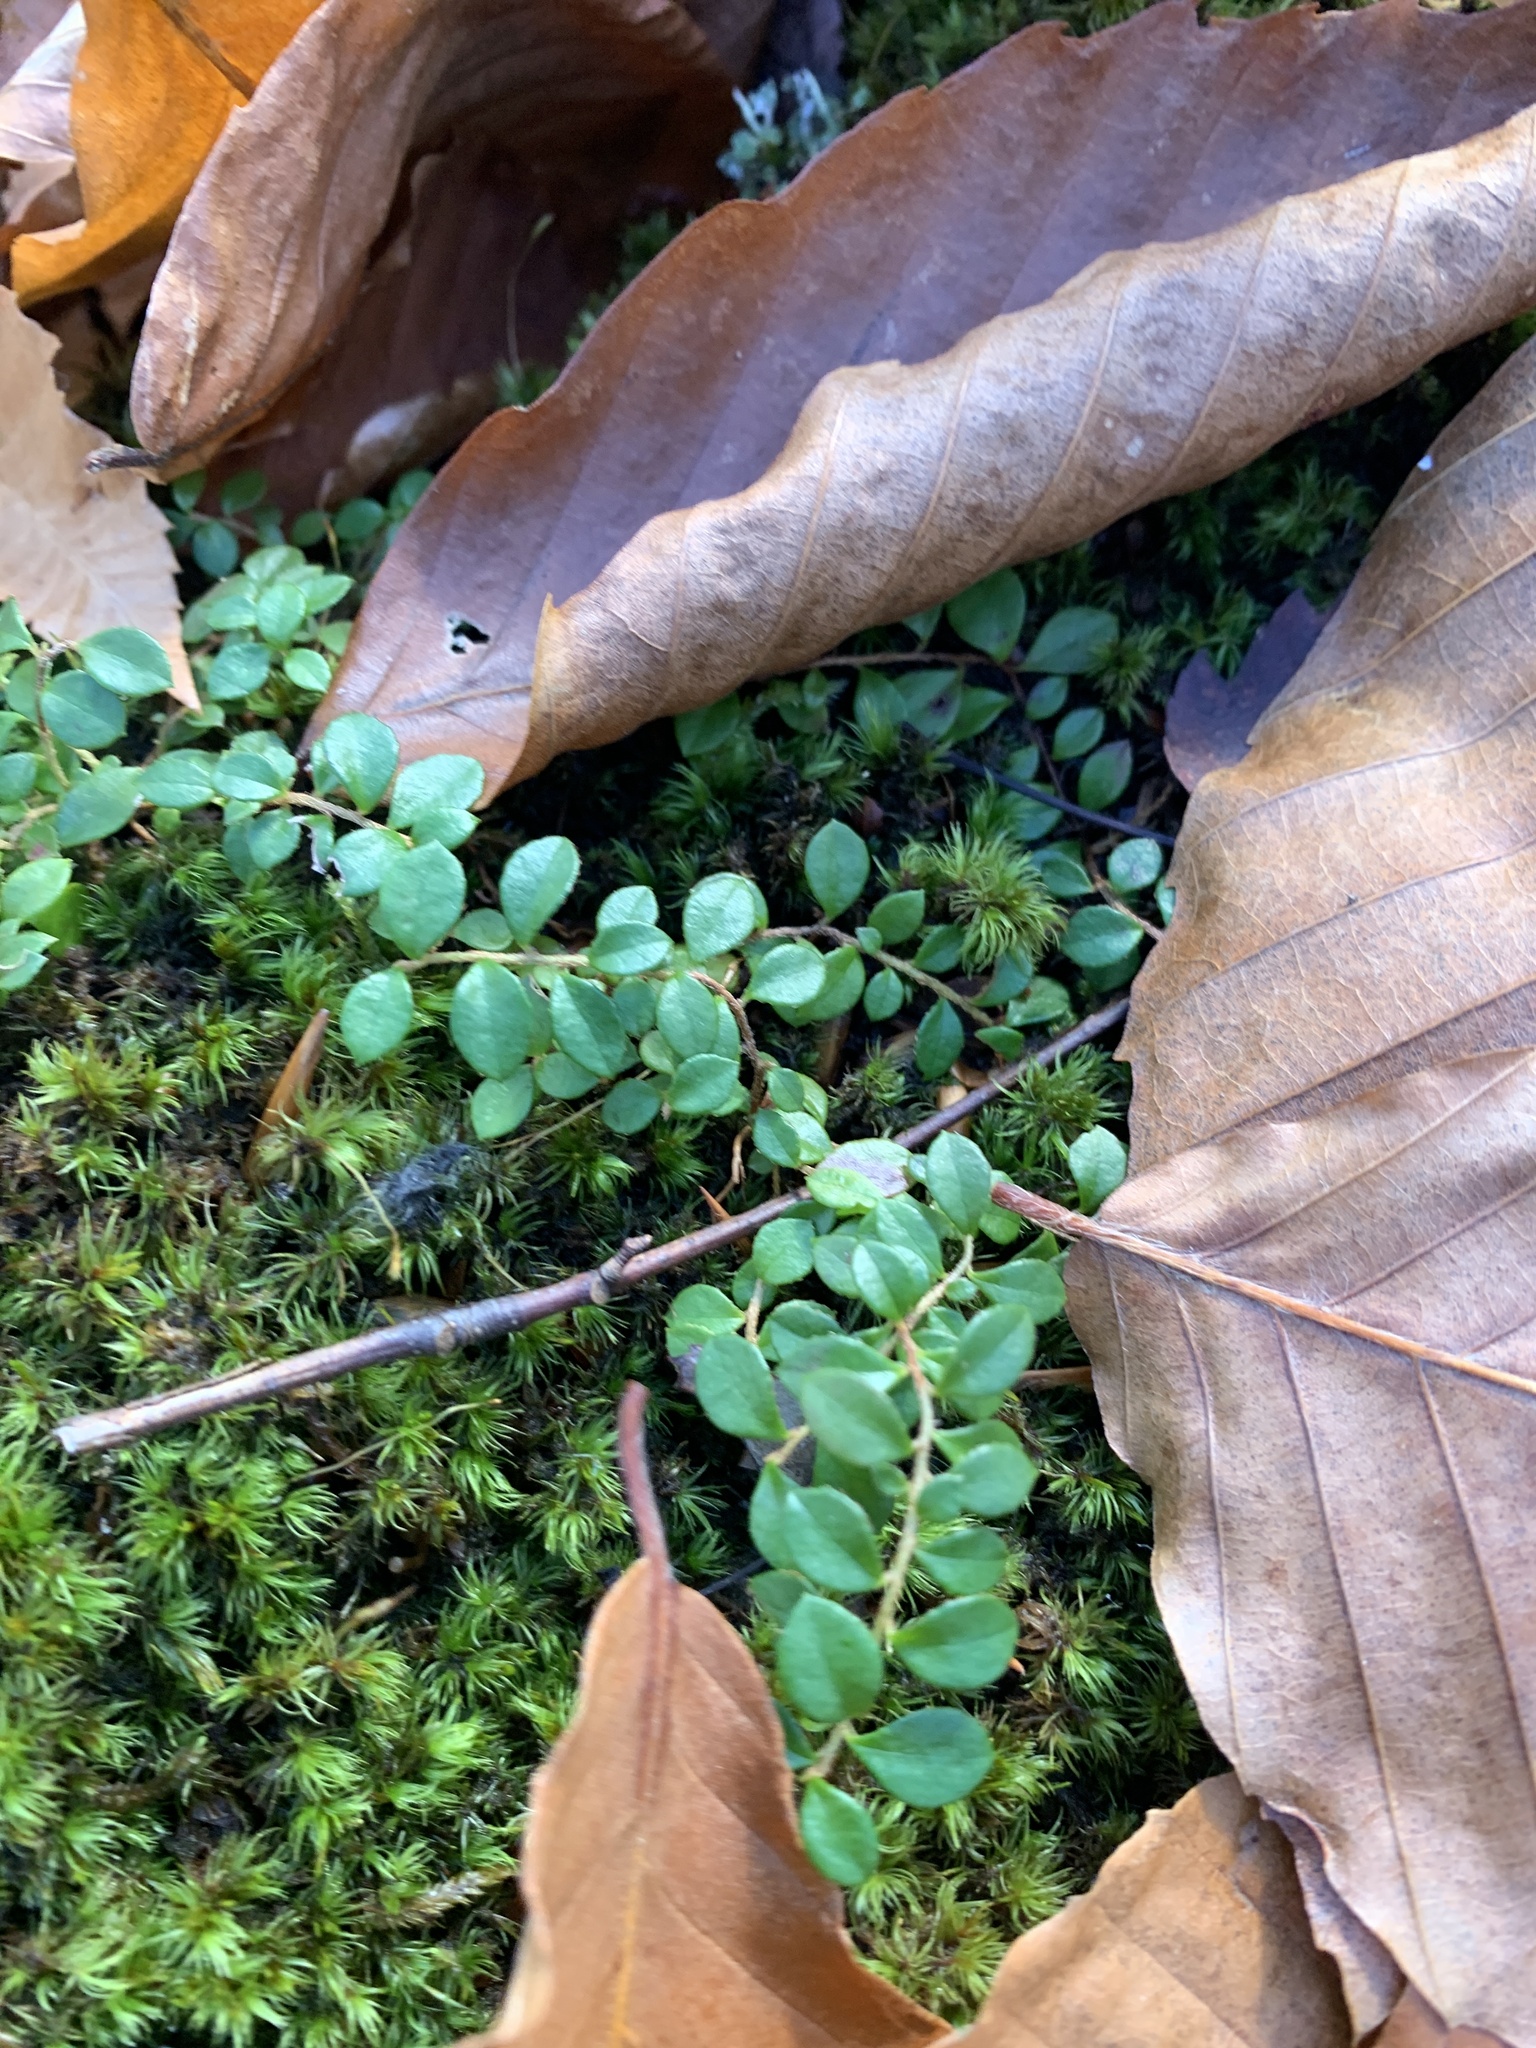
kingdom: Plantae
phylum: Tracheophyta
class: Magnoliopsida
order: Ericales
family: Ericaceae
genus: Gaultheria
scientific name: Gaultheria hispidula
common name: Cancer wintergreen
